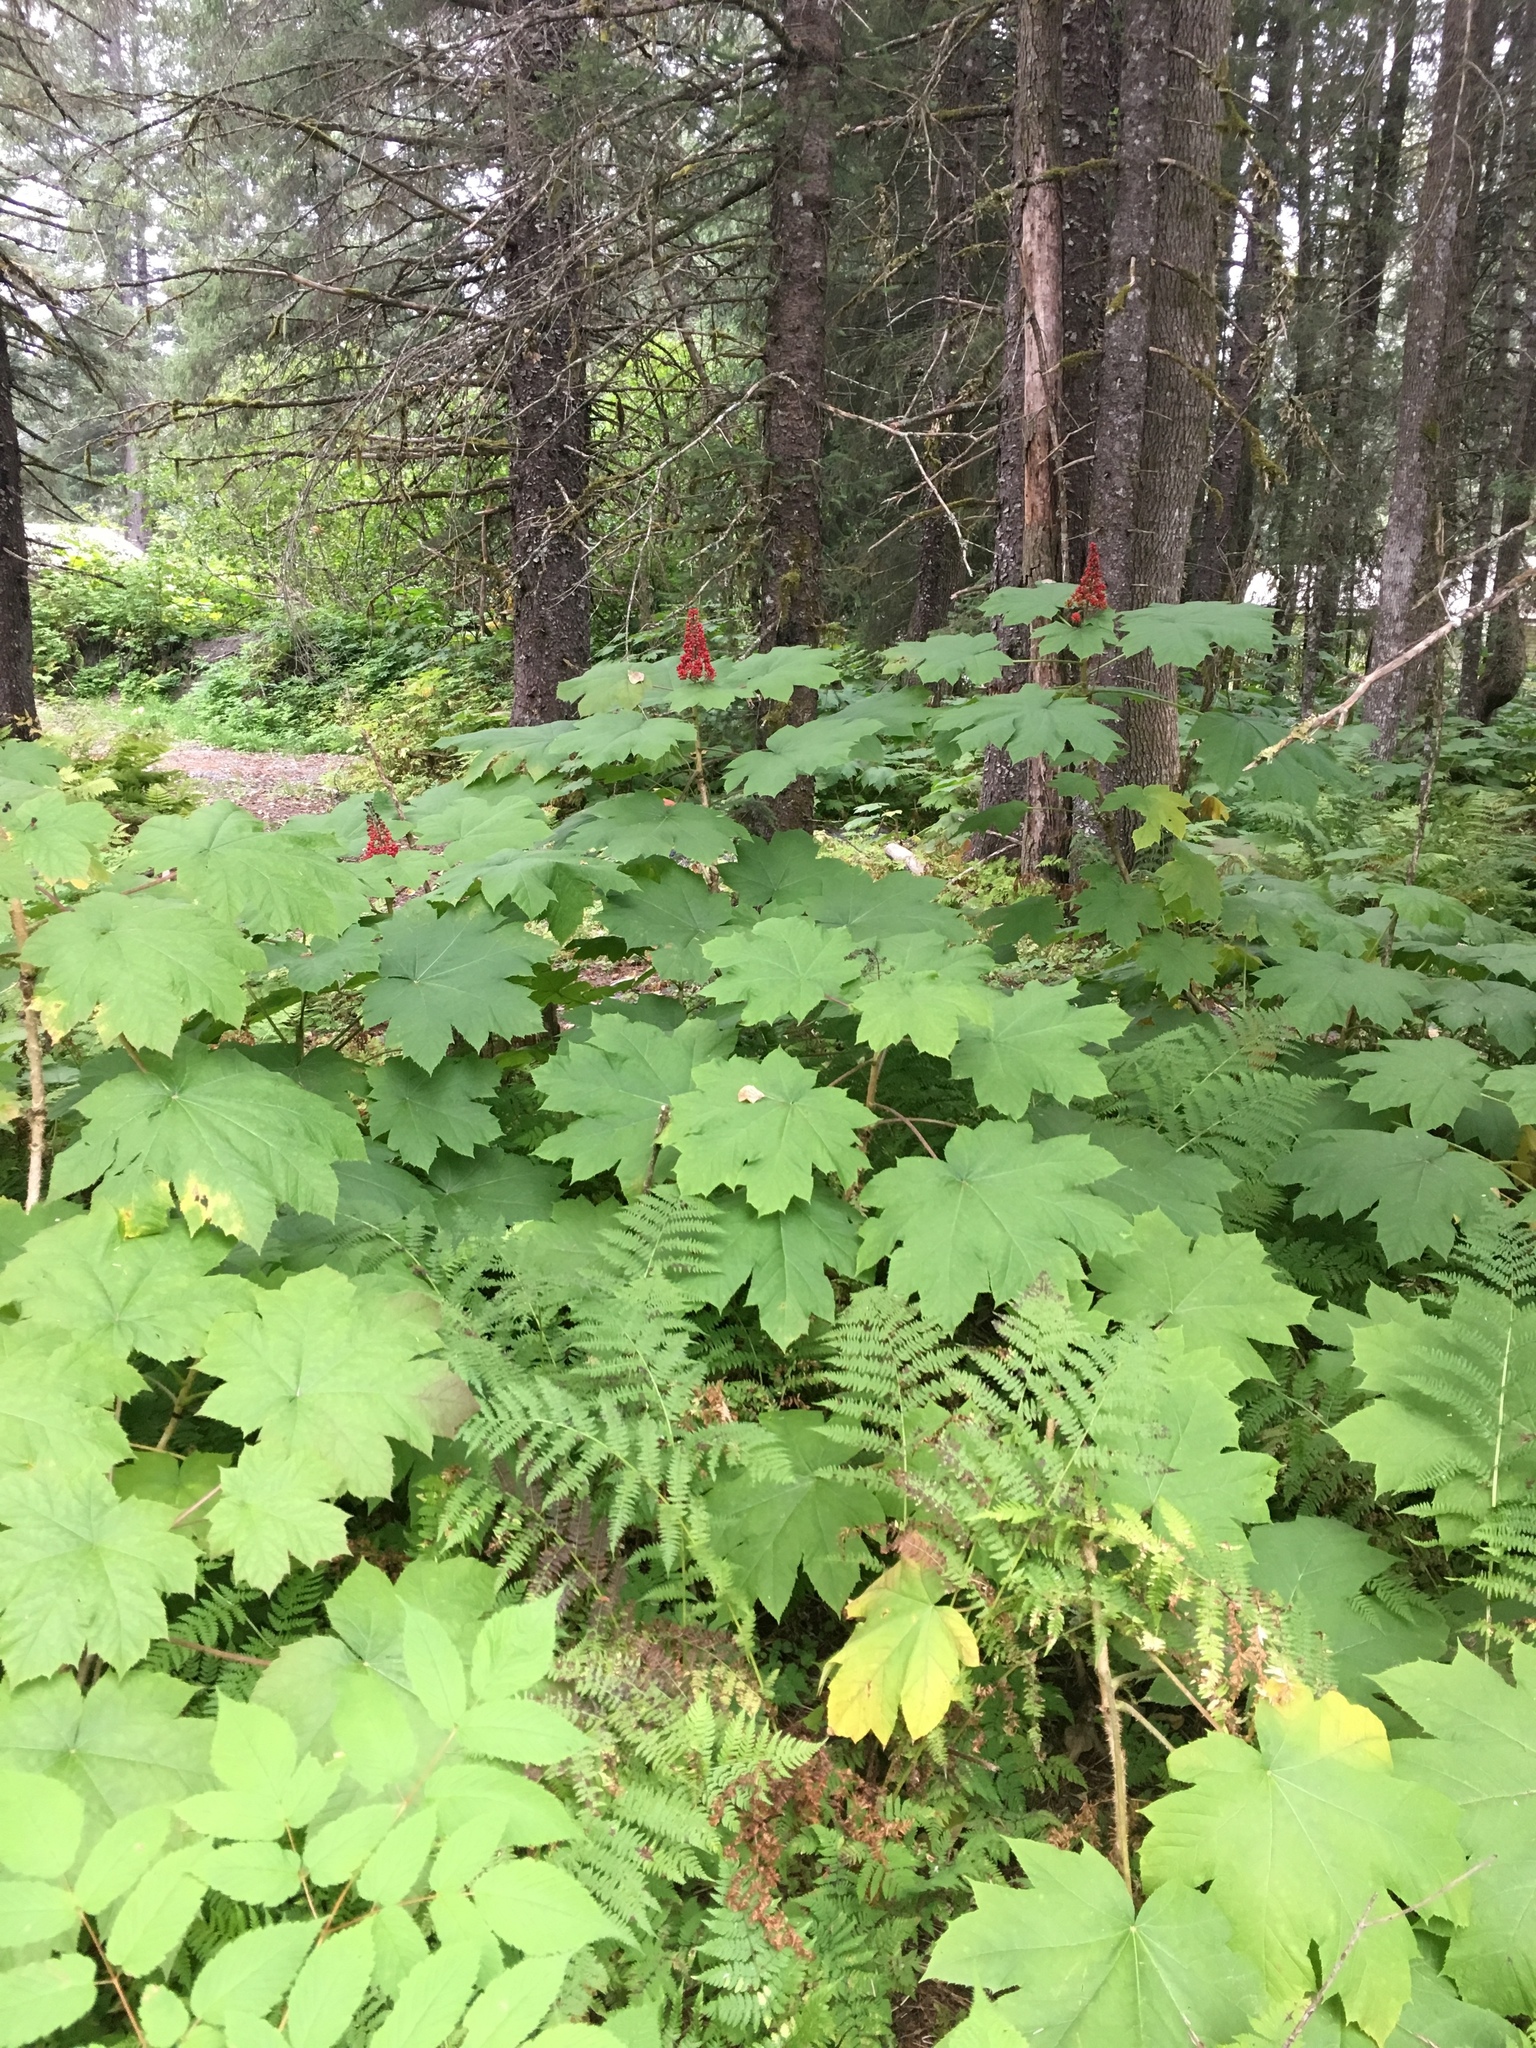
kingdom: Plantae
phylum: Tracheophyta
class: Magnoliopsida
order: Apiales
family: Araliaceae
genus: Oplopanax
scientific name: Oplopanax horridus
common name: Devil's walking-stick
